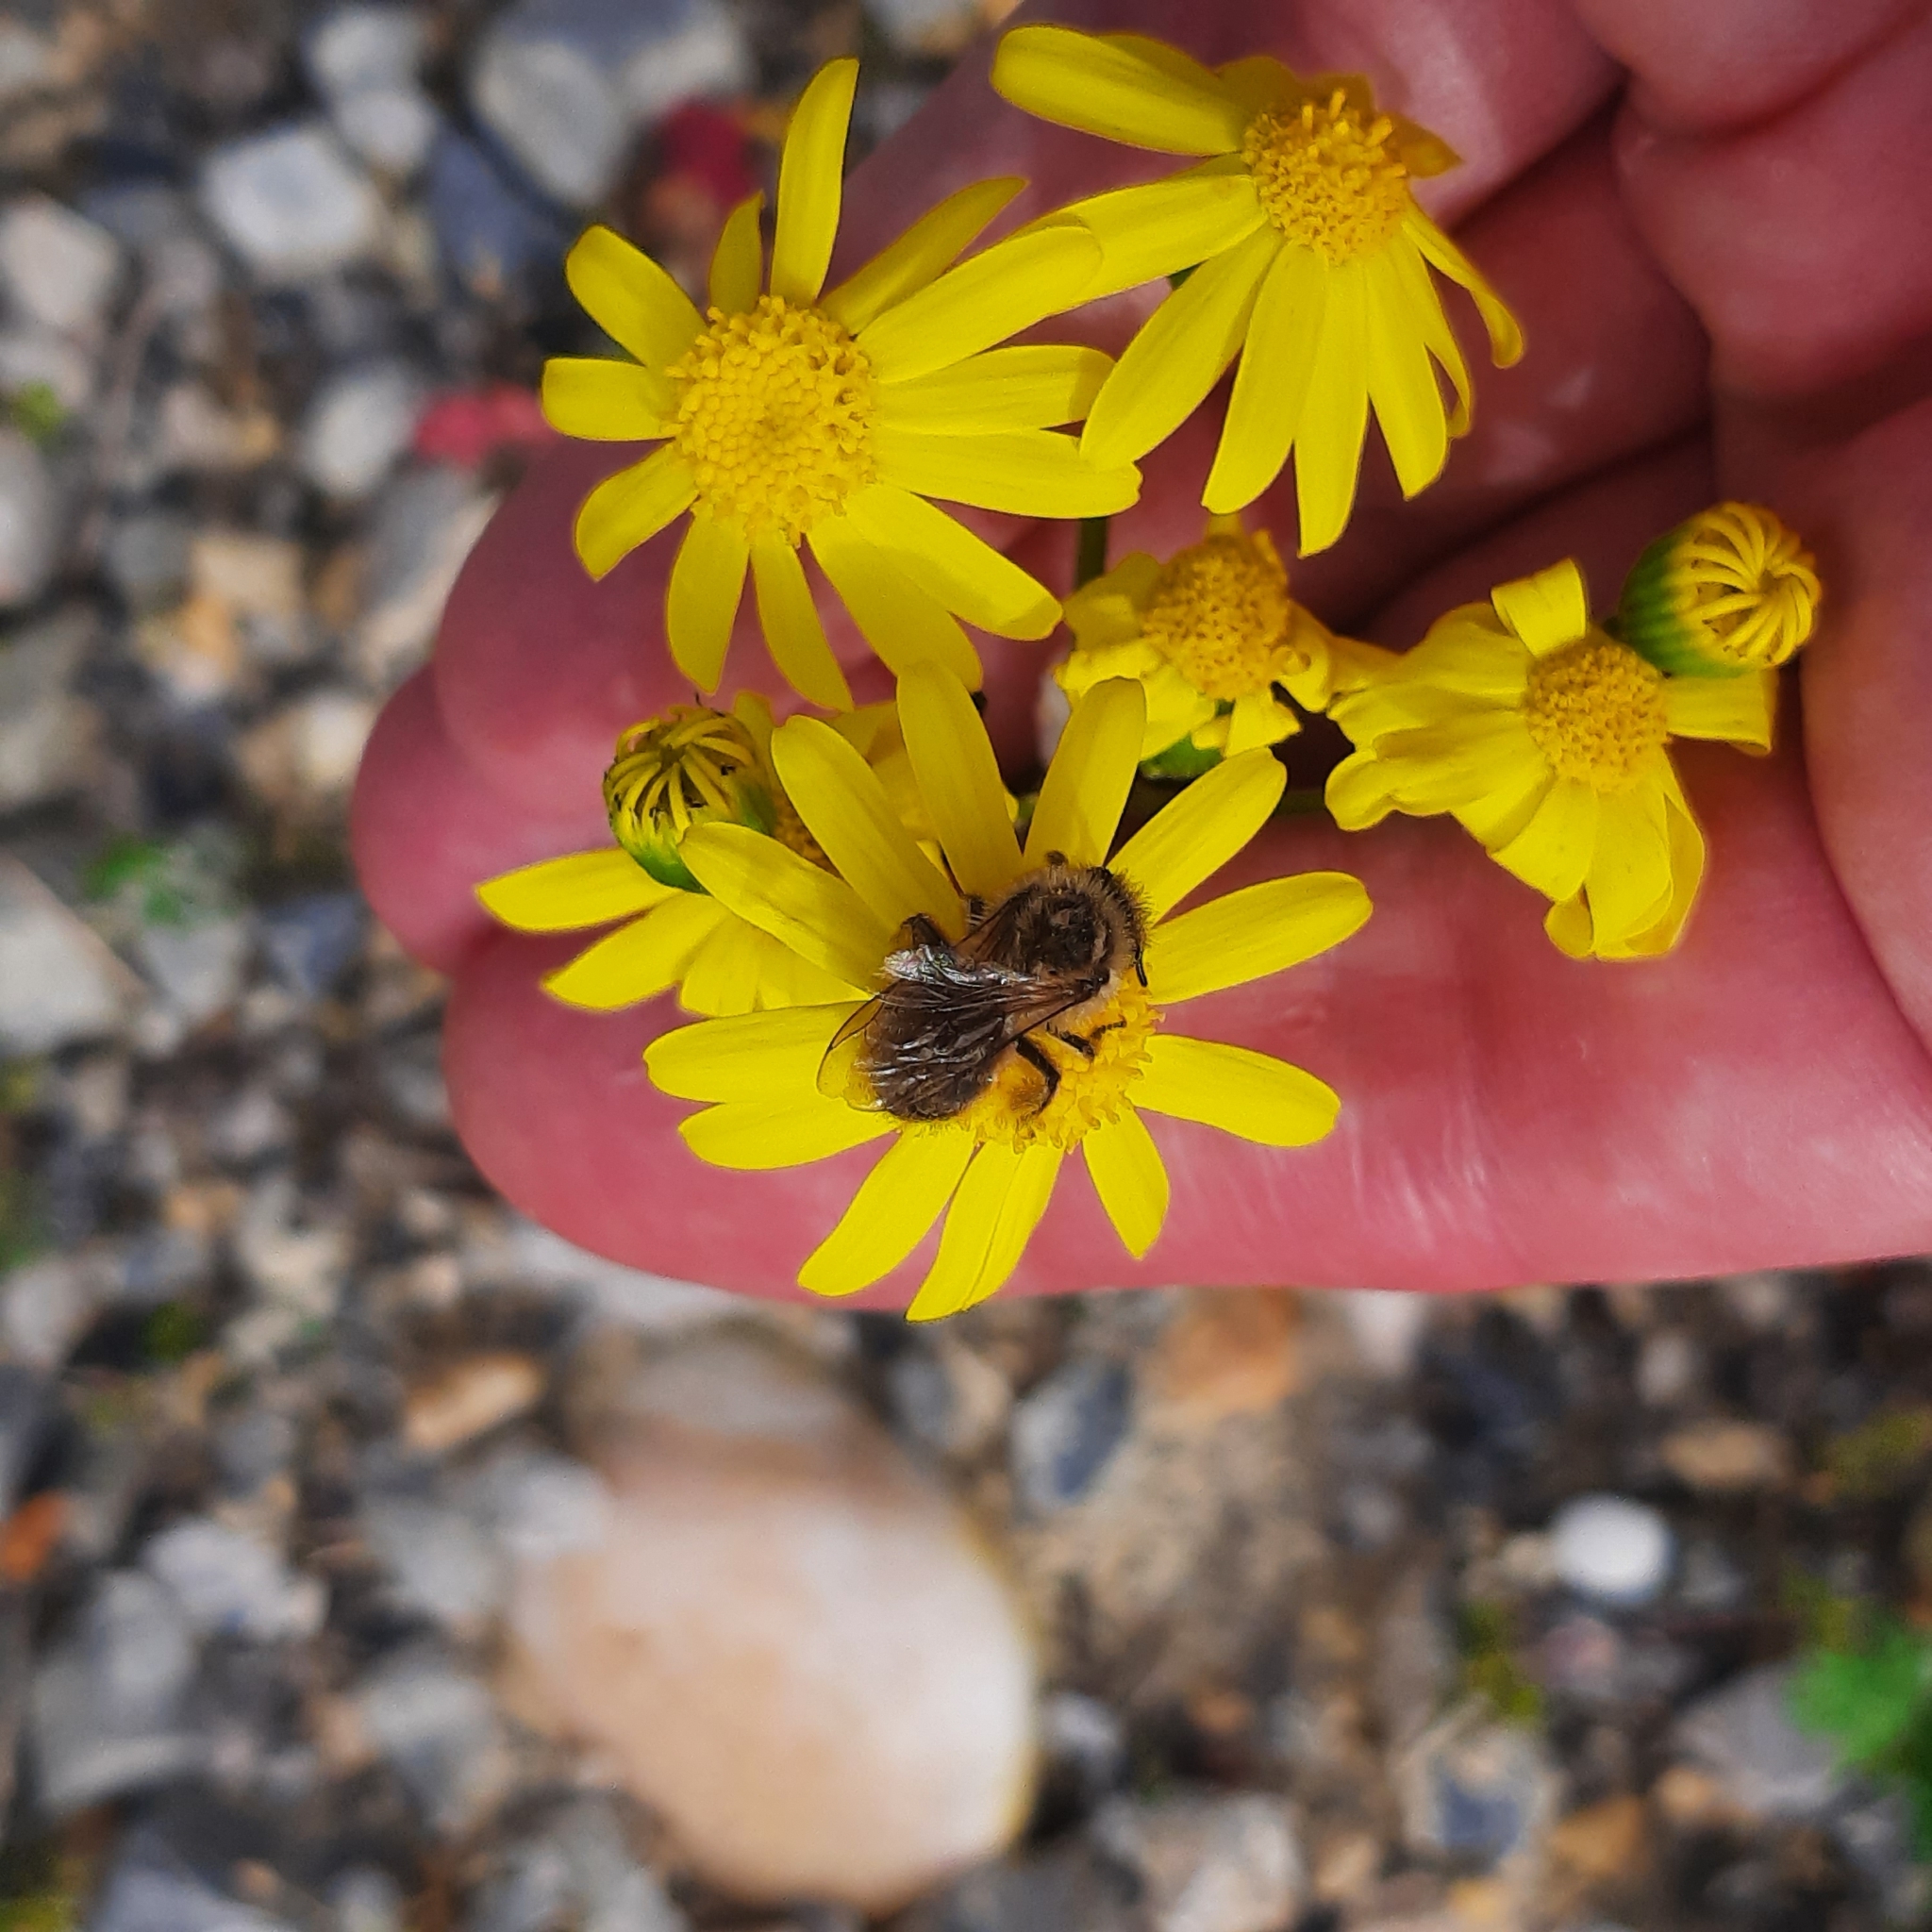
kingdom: Animalia
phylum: Arthropoda
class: Insecta
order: Hymenoptera
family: Colletidae
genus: Colletes
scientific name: Colletes cunicularius
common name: Early colletes
